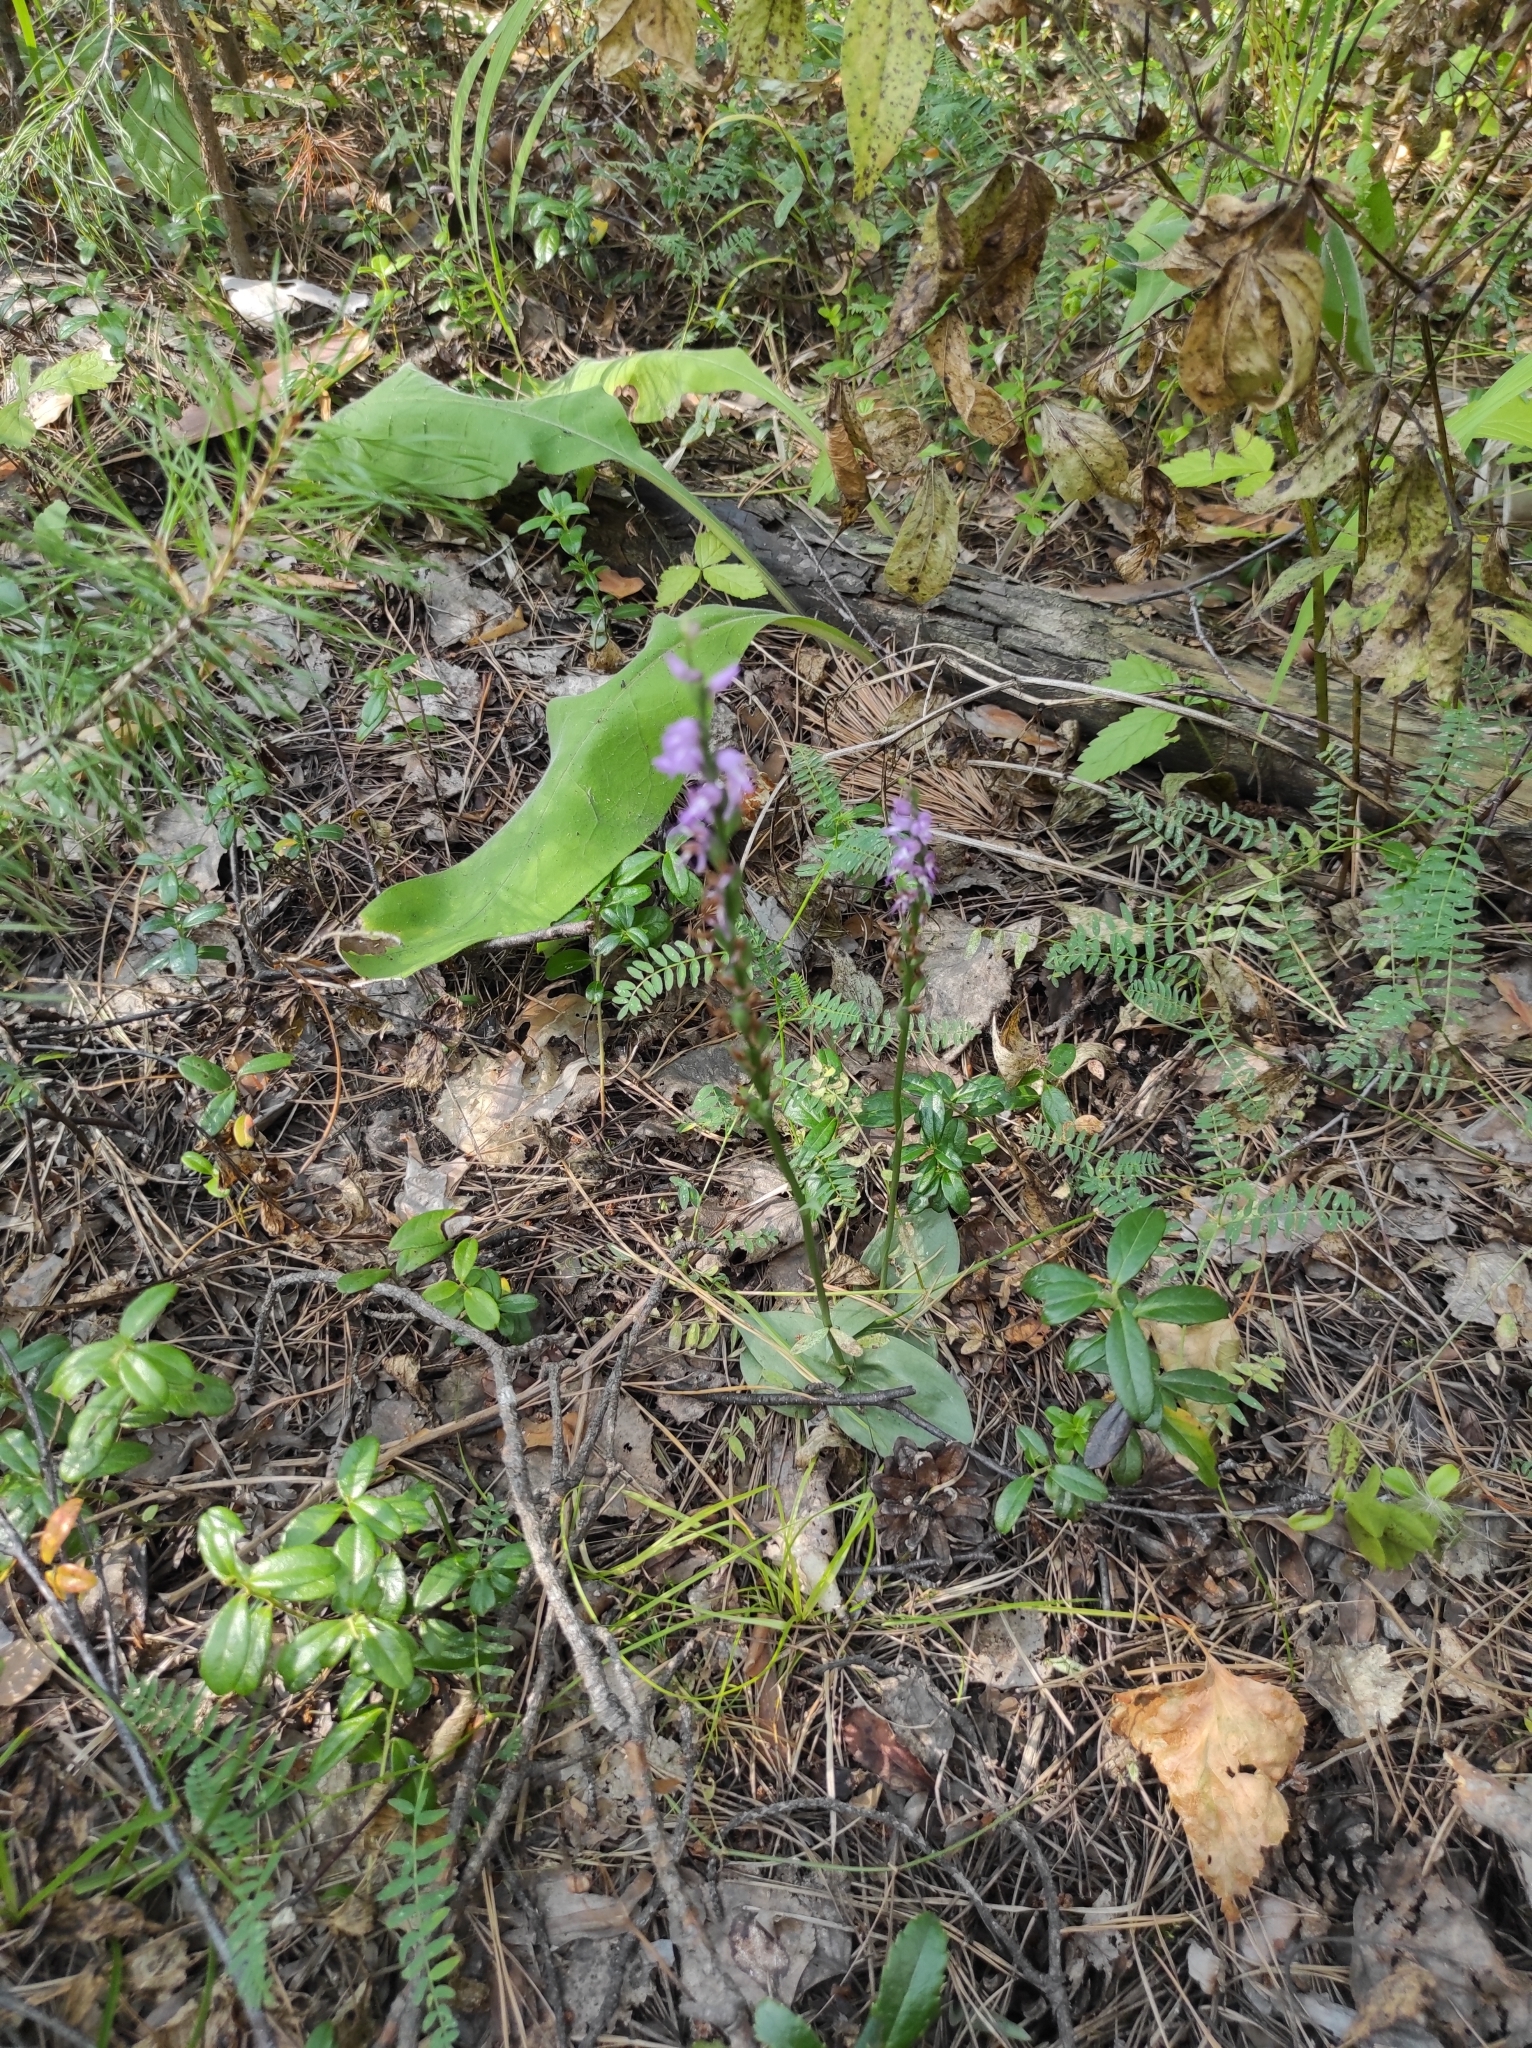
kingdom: Plantae
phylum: Tracheophyta
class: Liliopsida
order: Asparagales
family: Orchidaceae
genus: Hemipilia
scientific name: Hemipilia cucullata
